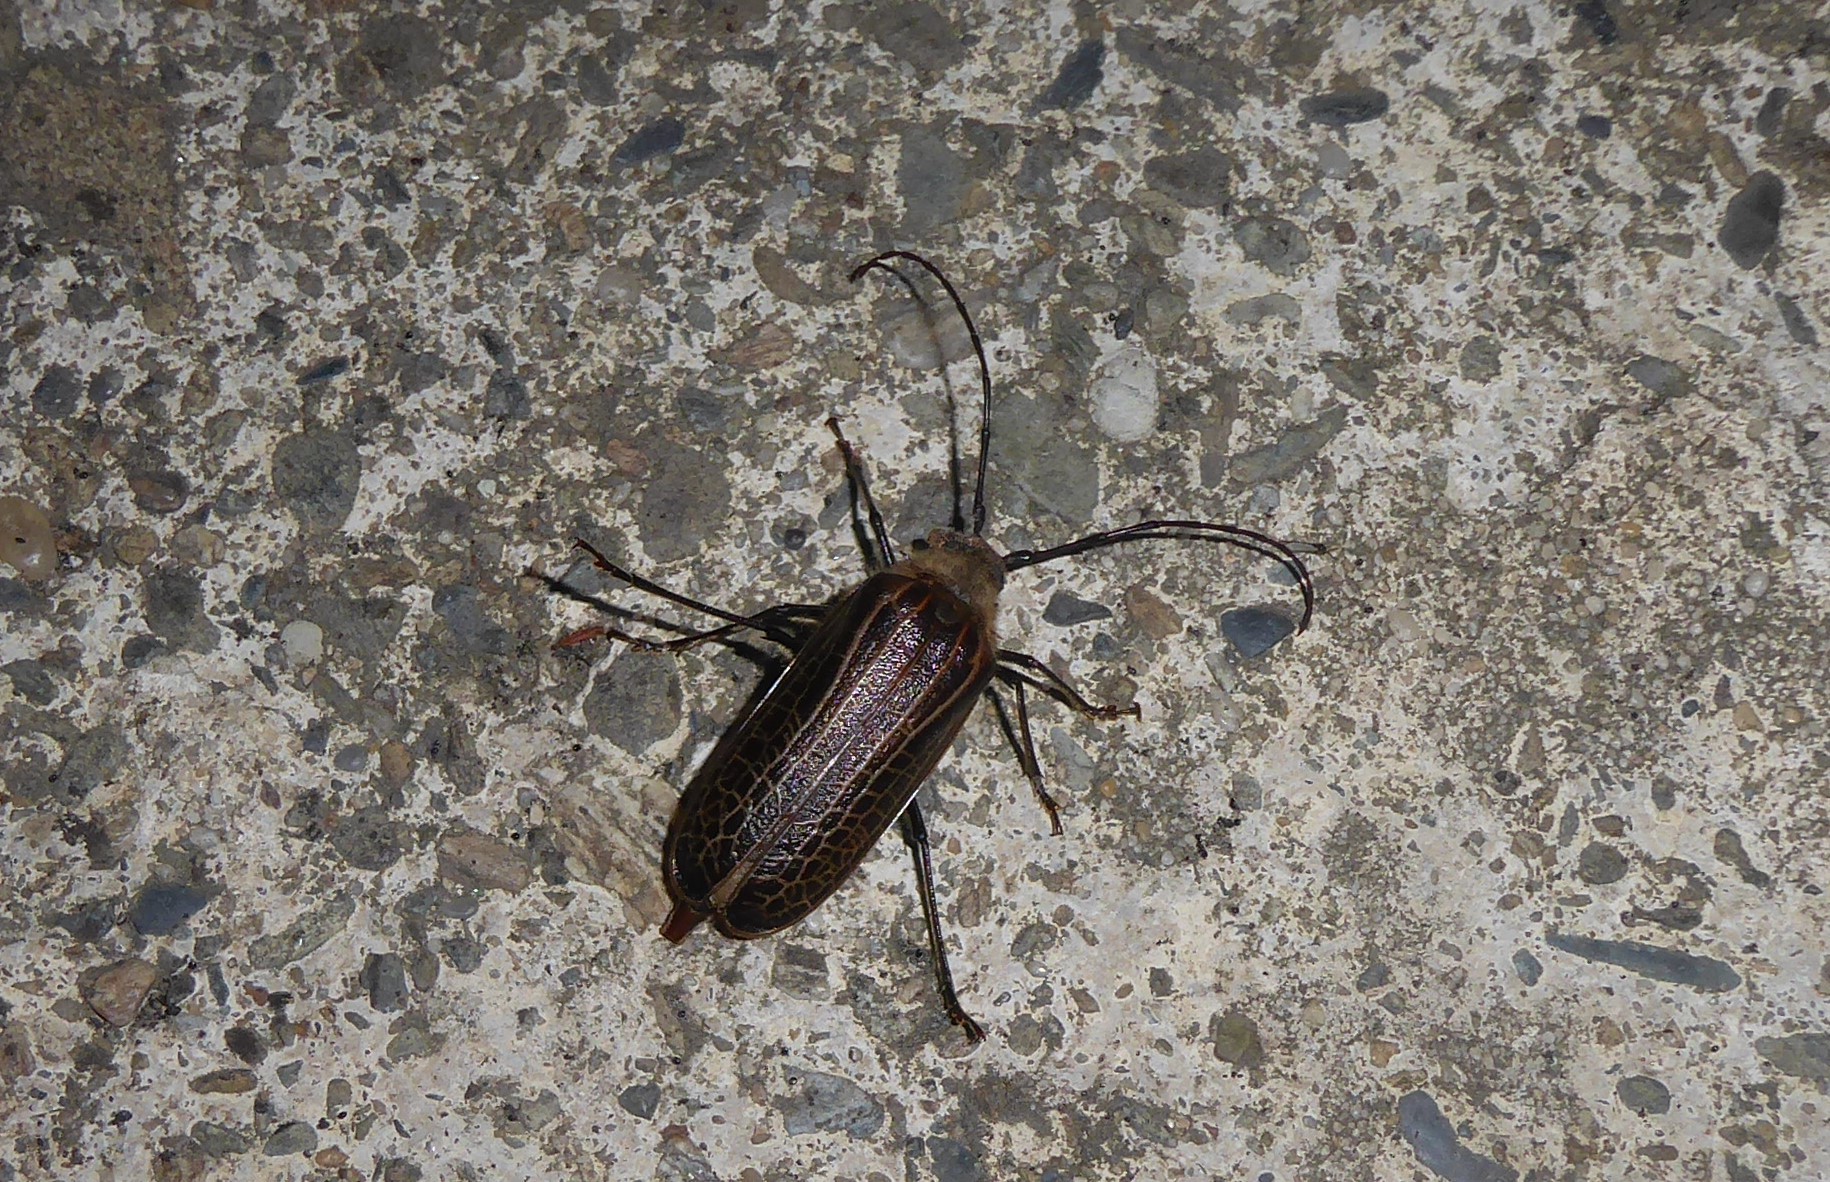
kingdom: Animalia
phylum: Arthropoda
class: Insecta
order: Coleoptera
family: Cerambycidae
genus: Prionoplus
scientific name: Prionoplus reticularis
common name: Huhu beetle
